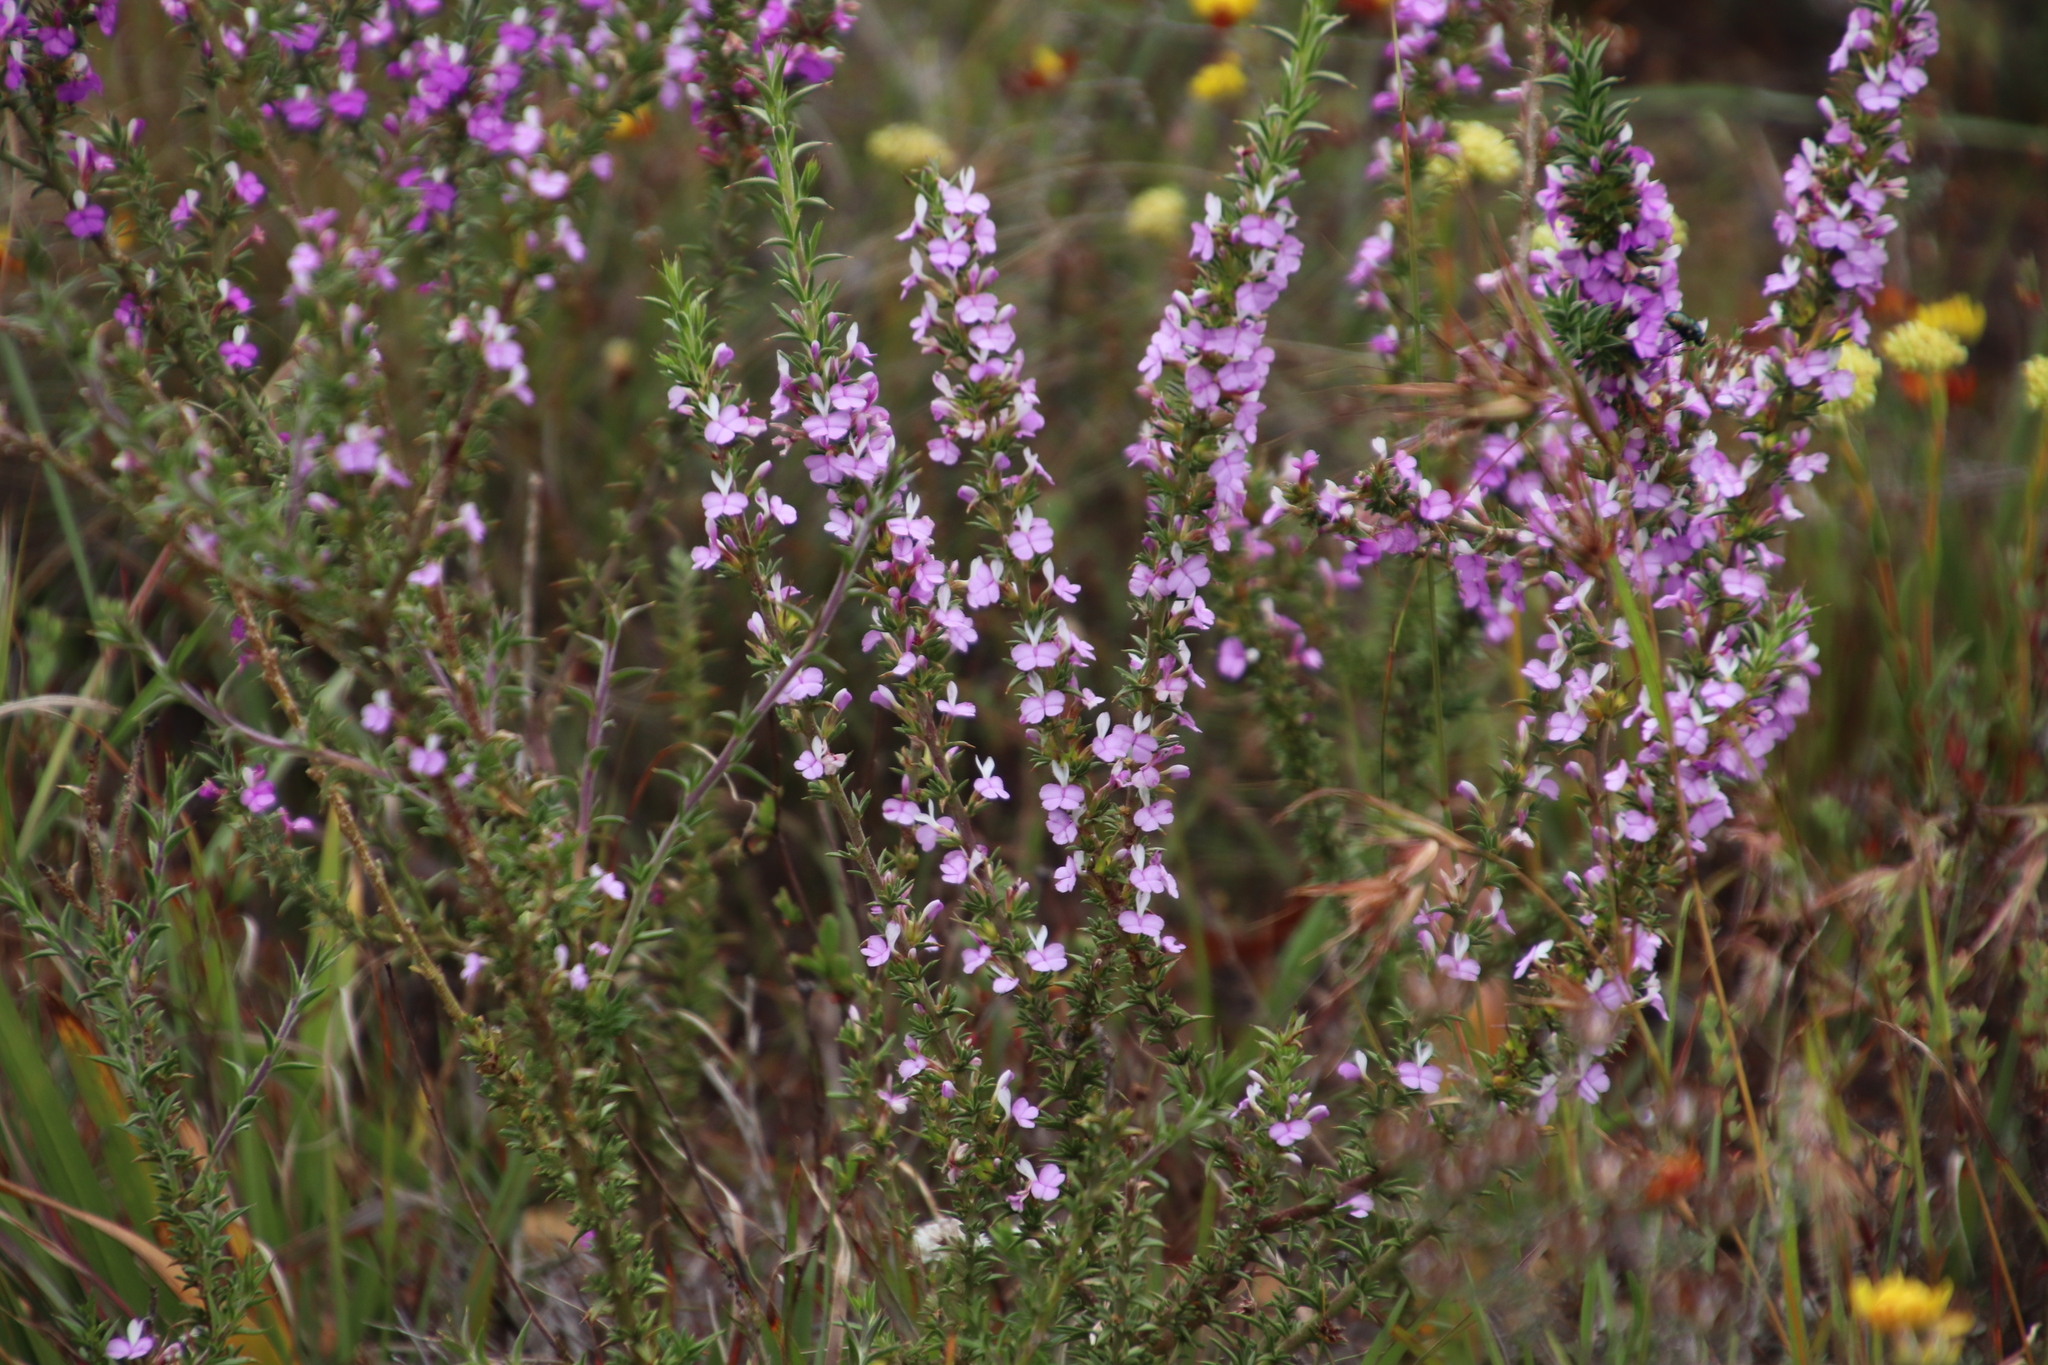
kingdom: Plantae
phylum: Tracheophyta
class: Magnoliopsida
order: Fabales
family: Polygalaceae
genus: Muraltia
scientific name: Muraltia heisteria
